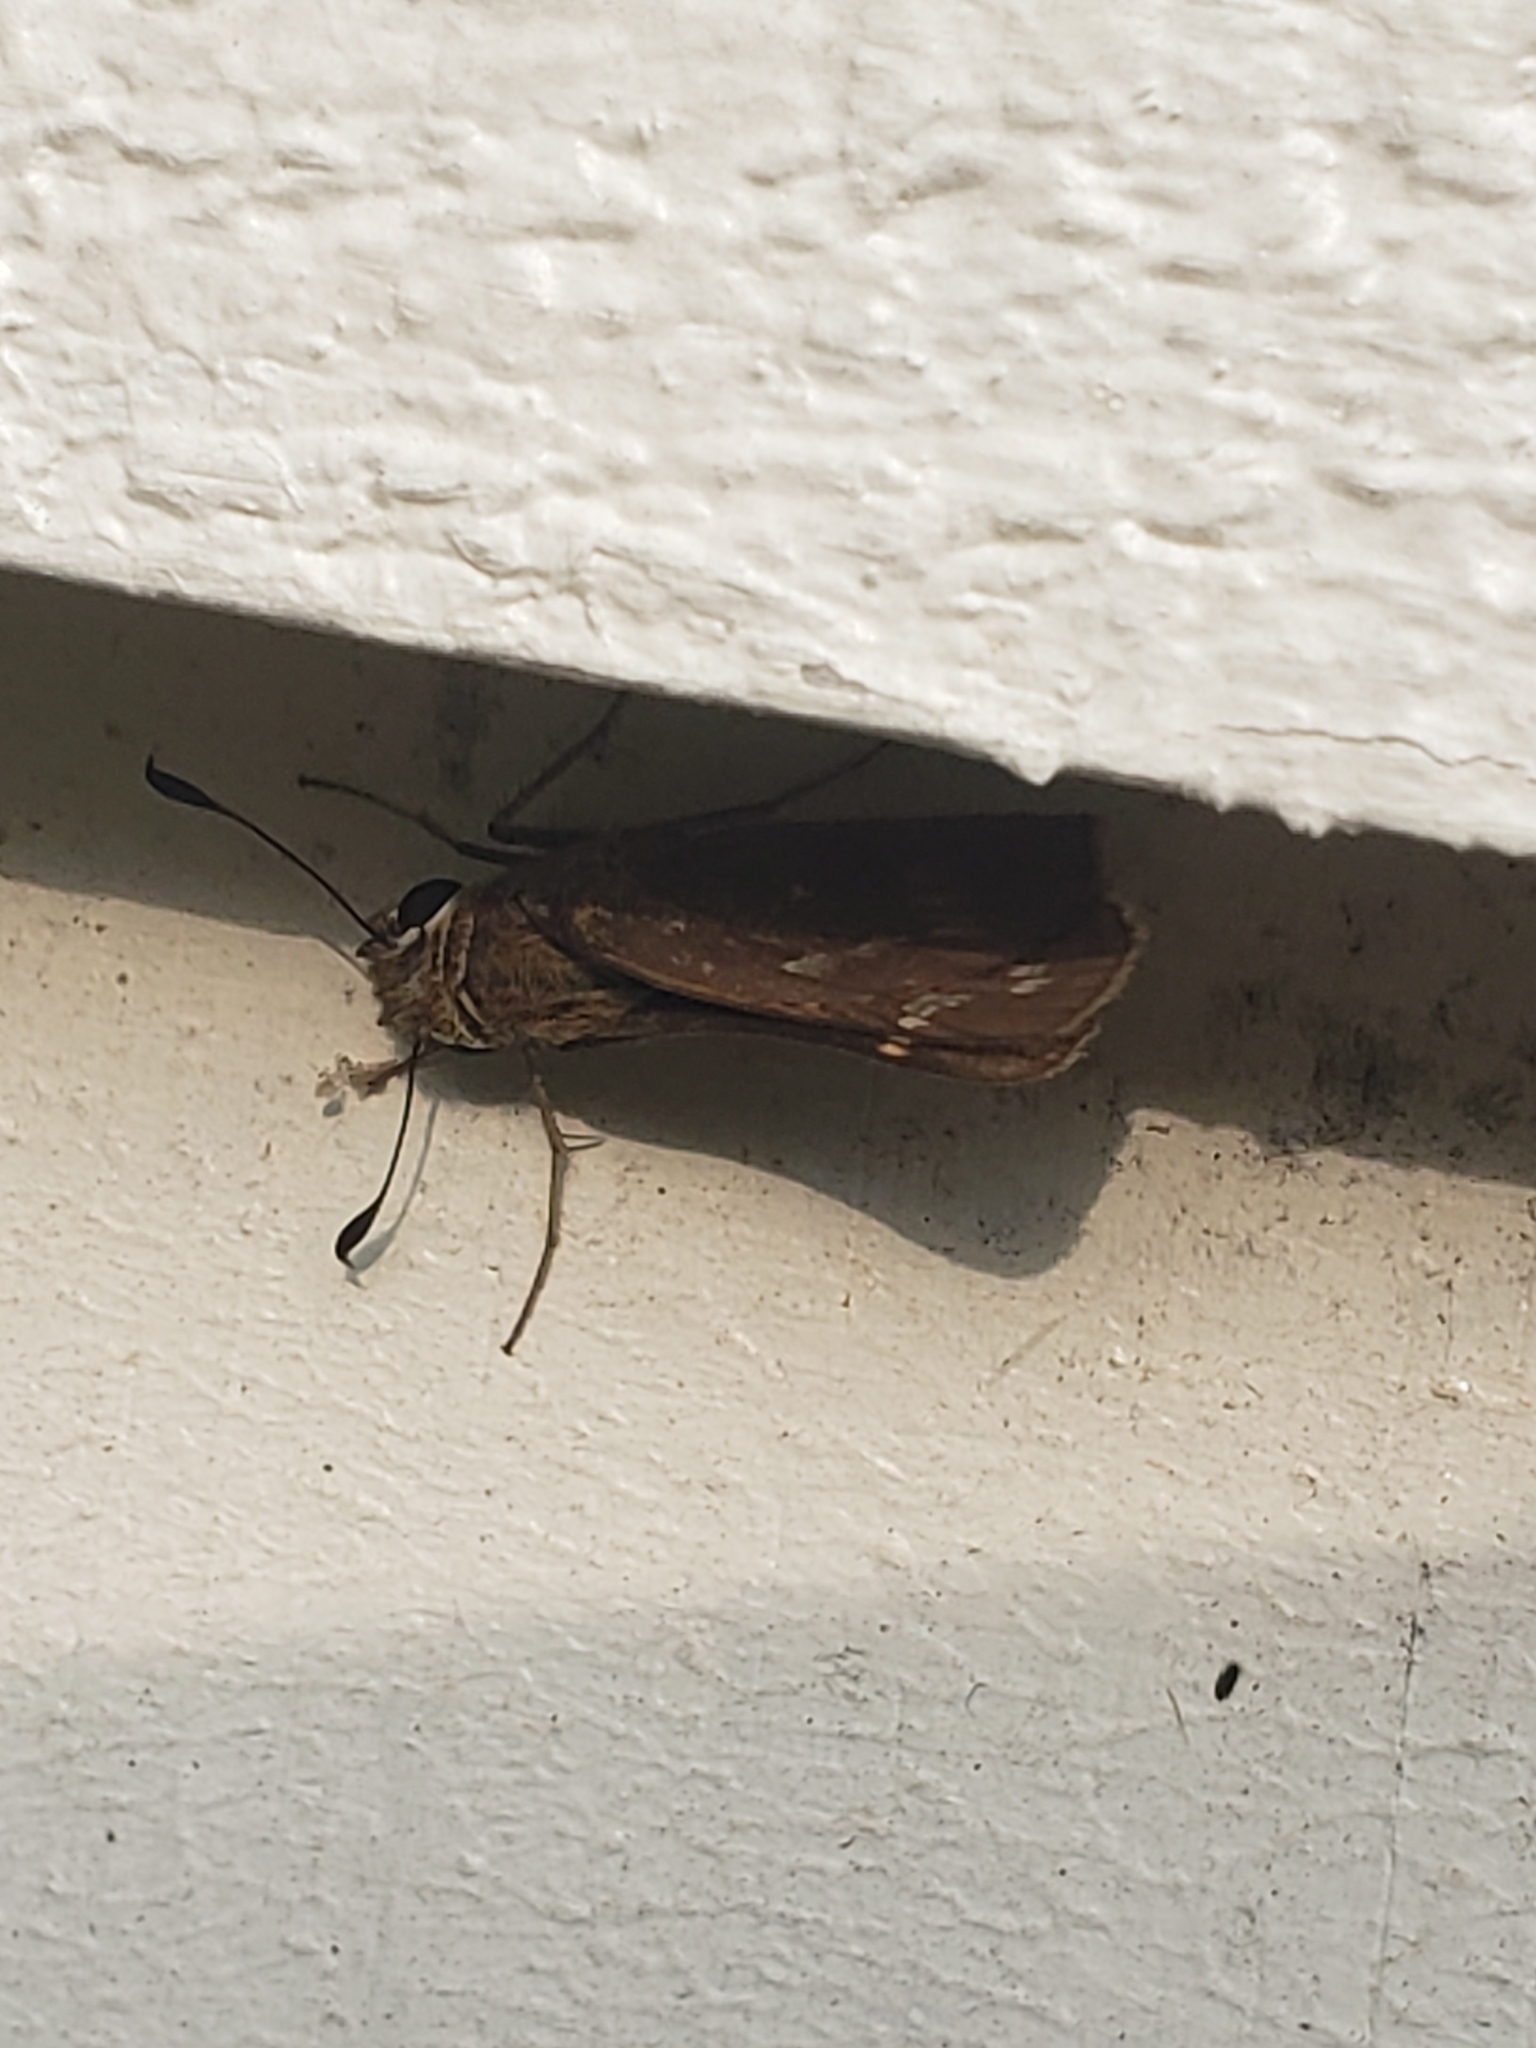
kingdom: Animalia
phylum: Arthropoda
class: Insecta
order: Lepidoptera
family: Hesperiidae
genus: Atalopedes
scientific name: Atalopedes
